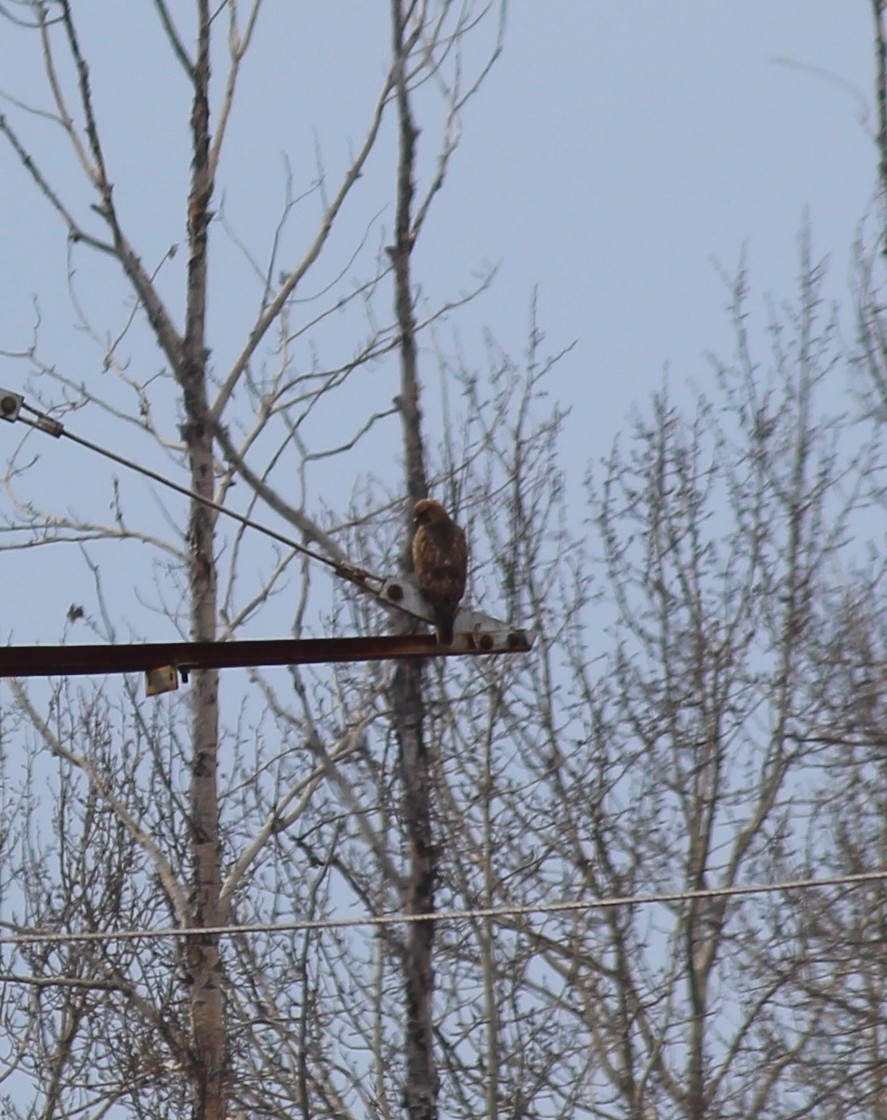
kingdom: Animalia
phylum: Chordata
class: Aves
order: Accipitriformes
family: Accipitridae
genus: Buteo
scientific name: Buteo japonicus
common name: Eastern buzzard
